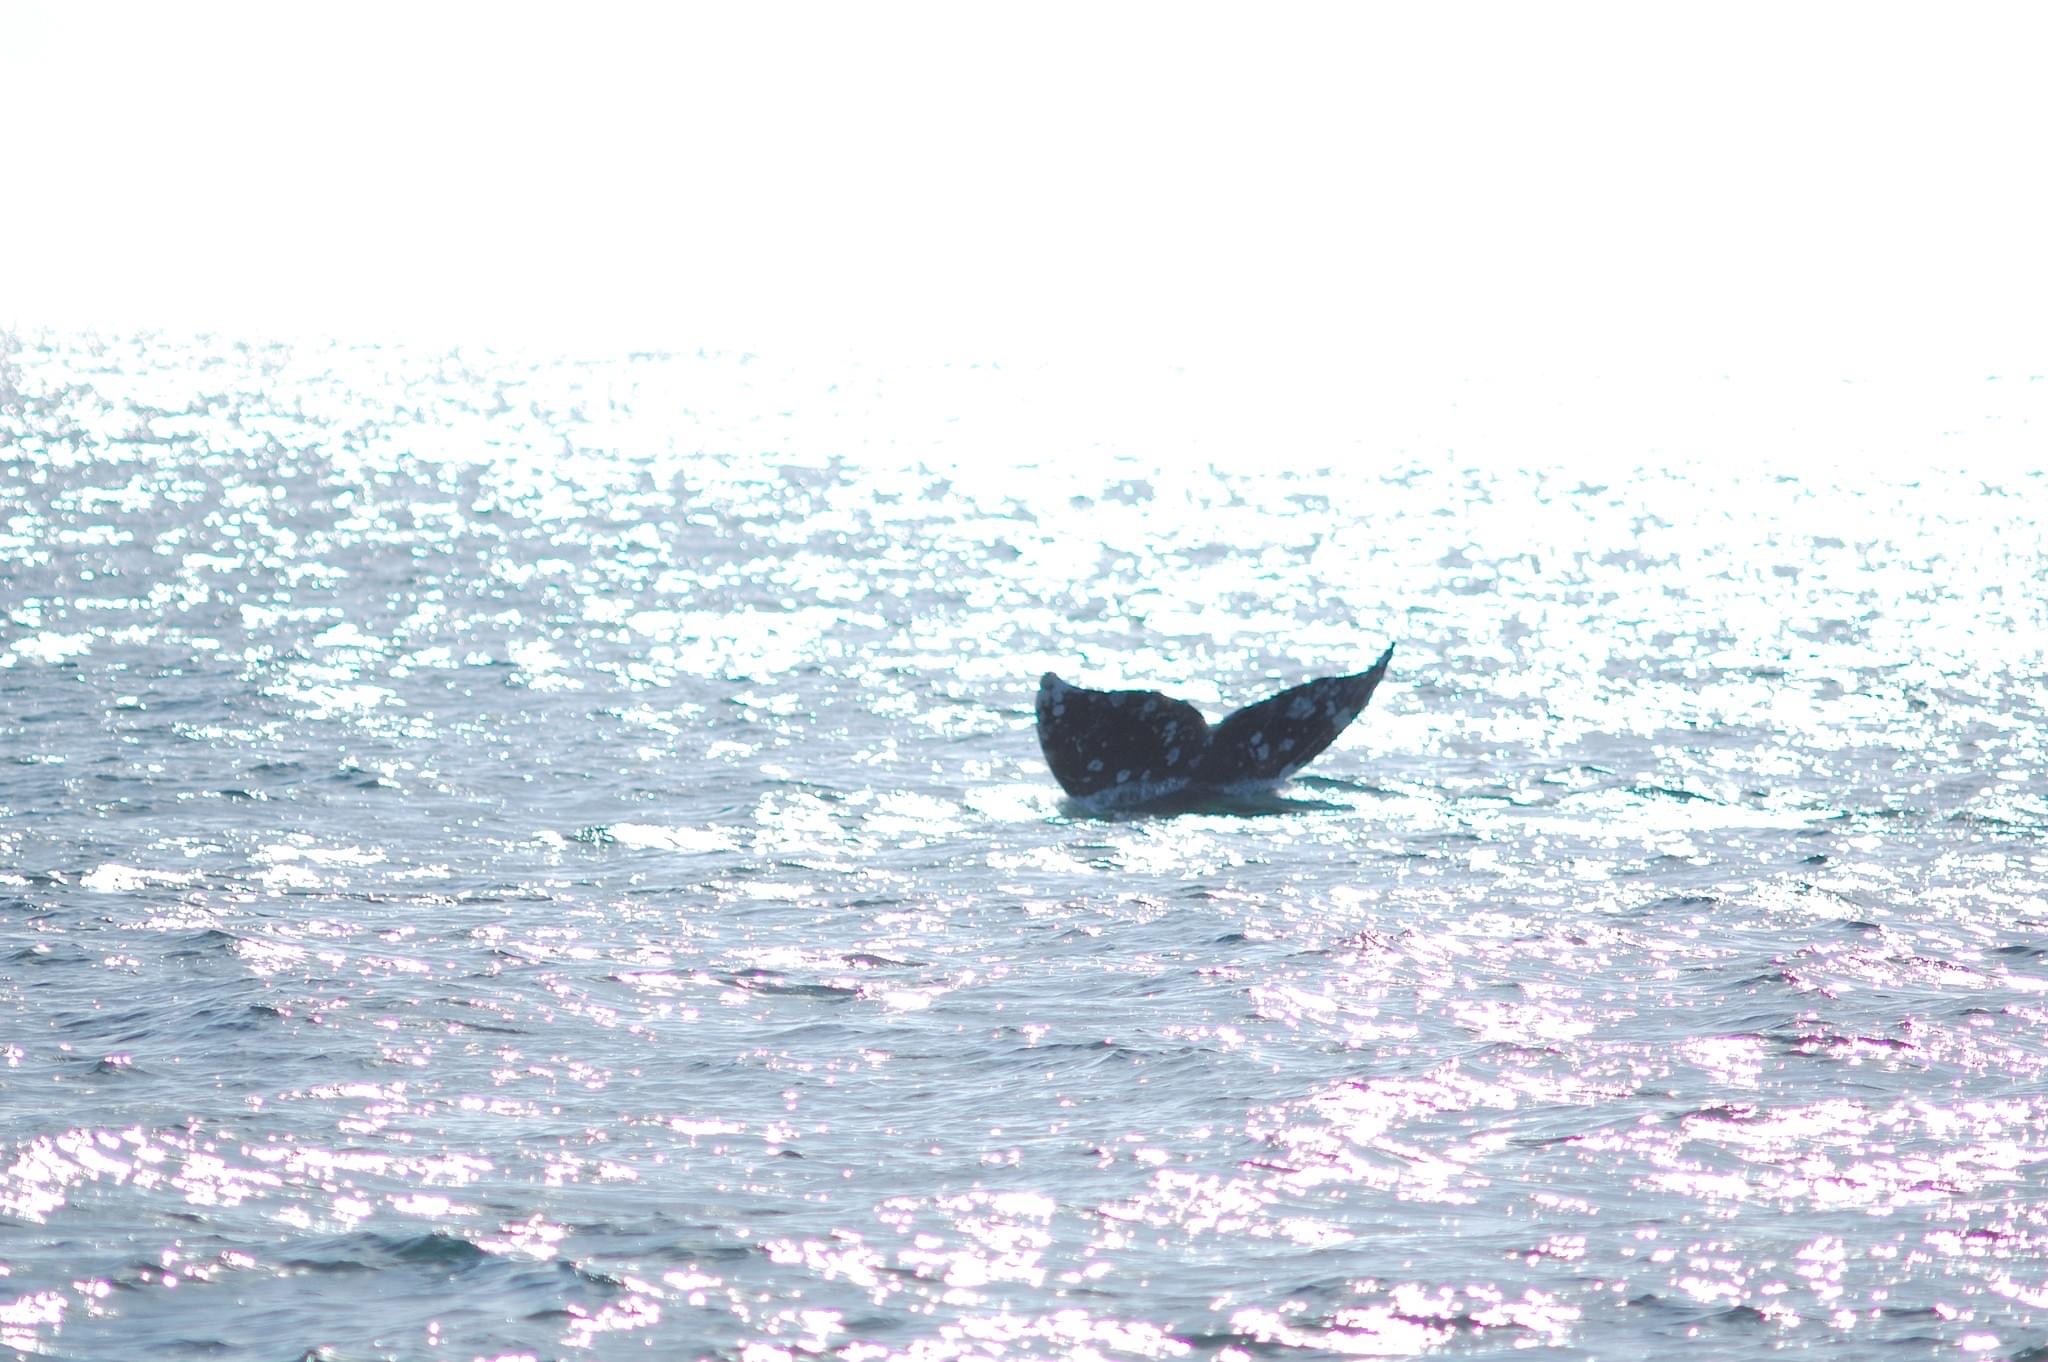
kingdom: Animalia
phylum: Chordata
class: Mammalia
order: Cetacea
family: Eschrichtiidae
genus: Eschrichtius
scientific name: Eschrichtius robustus
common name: Gray whale
